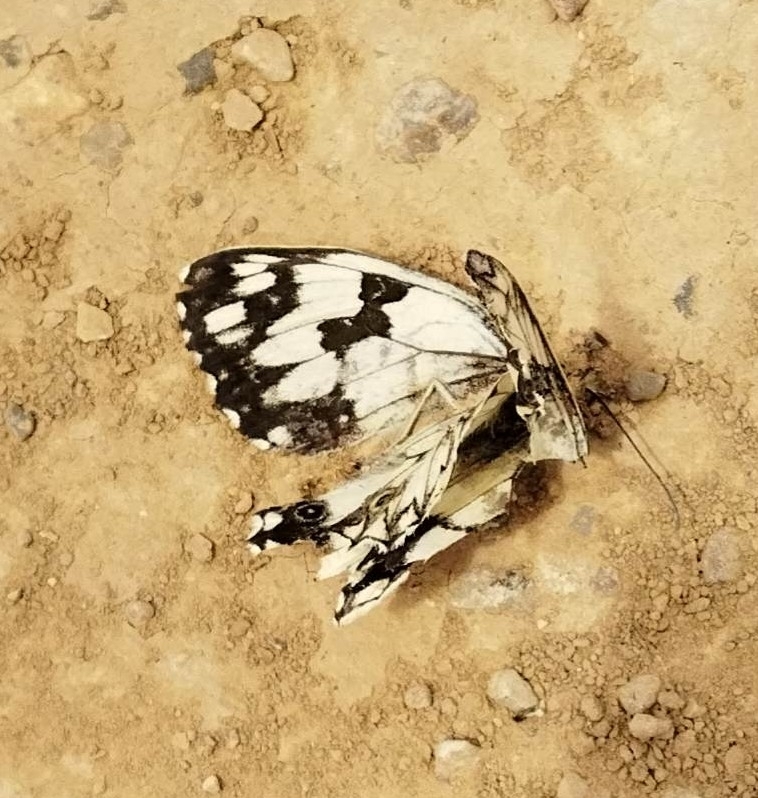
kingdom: Animalia
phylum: Arthropoda
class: Insecta
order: Lepidoptera
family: Nymphalidae
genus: Melanargia
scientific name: Melanargia lachesis
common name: Iberian marbled white
